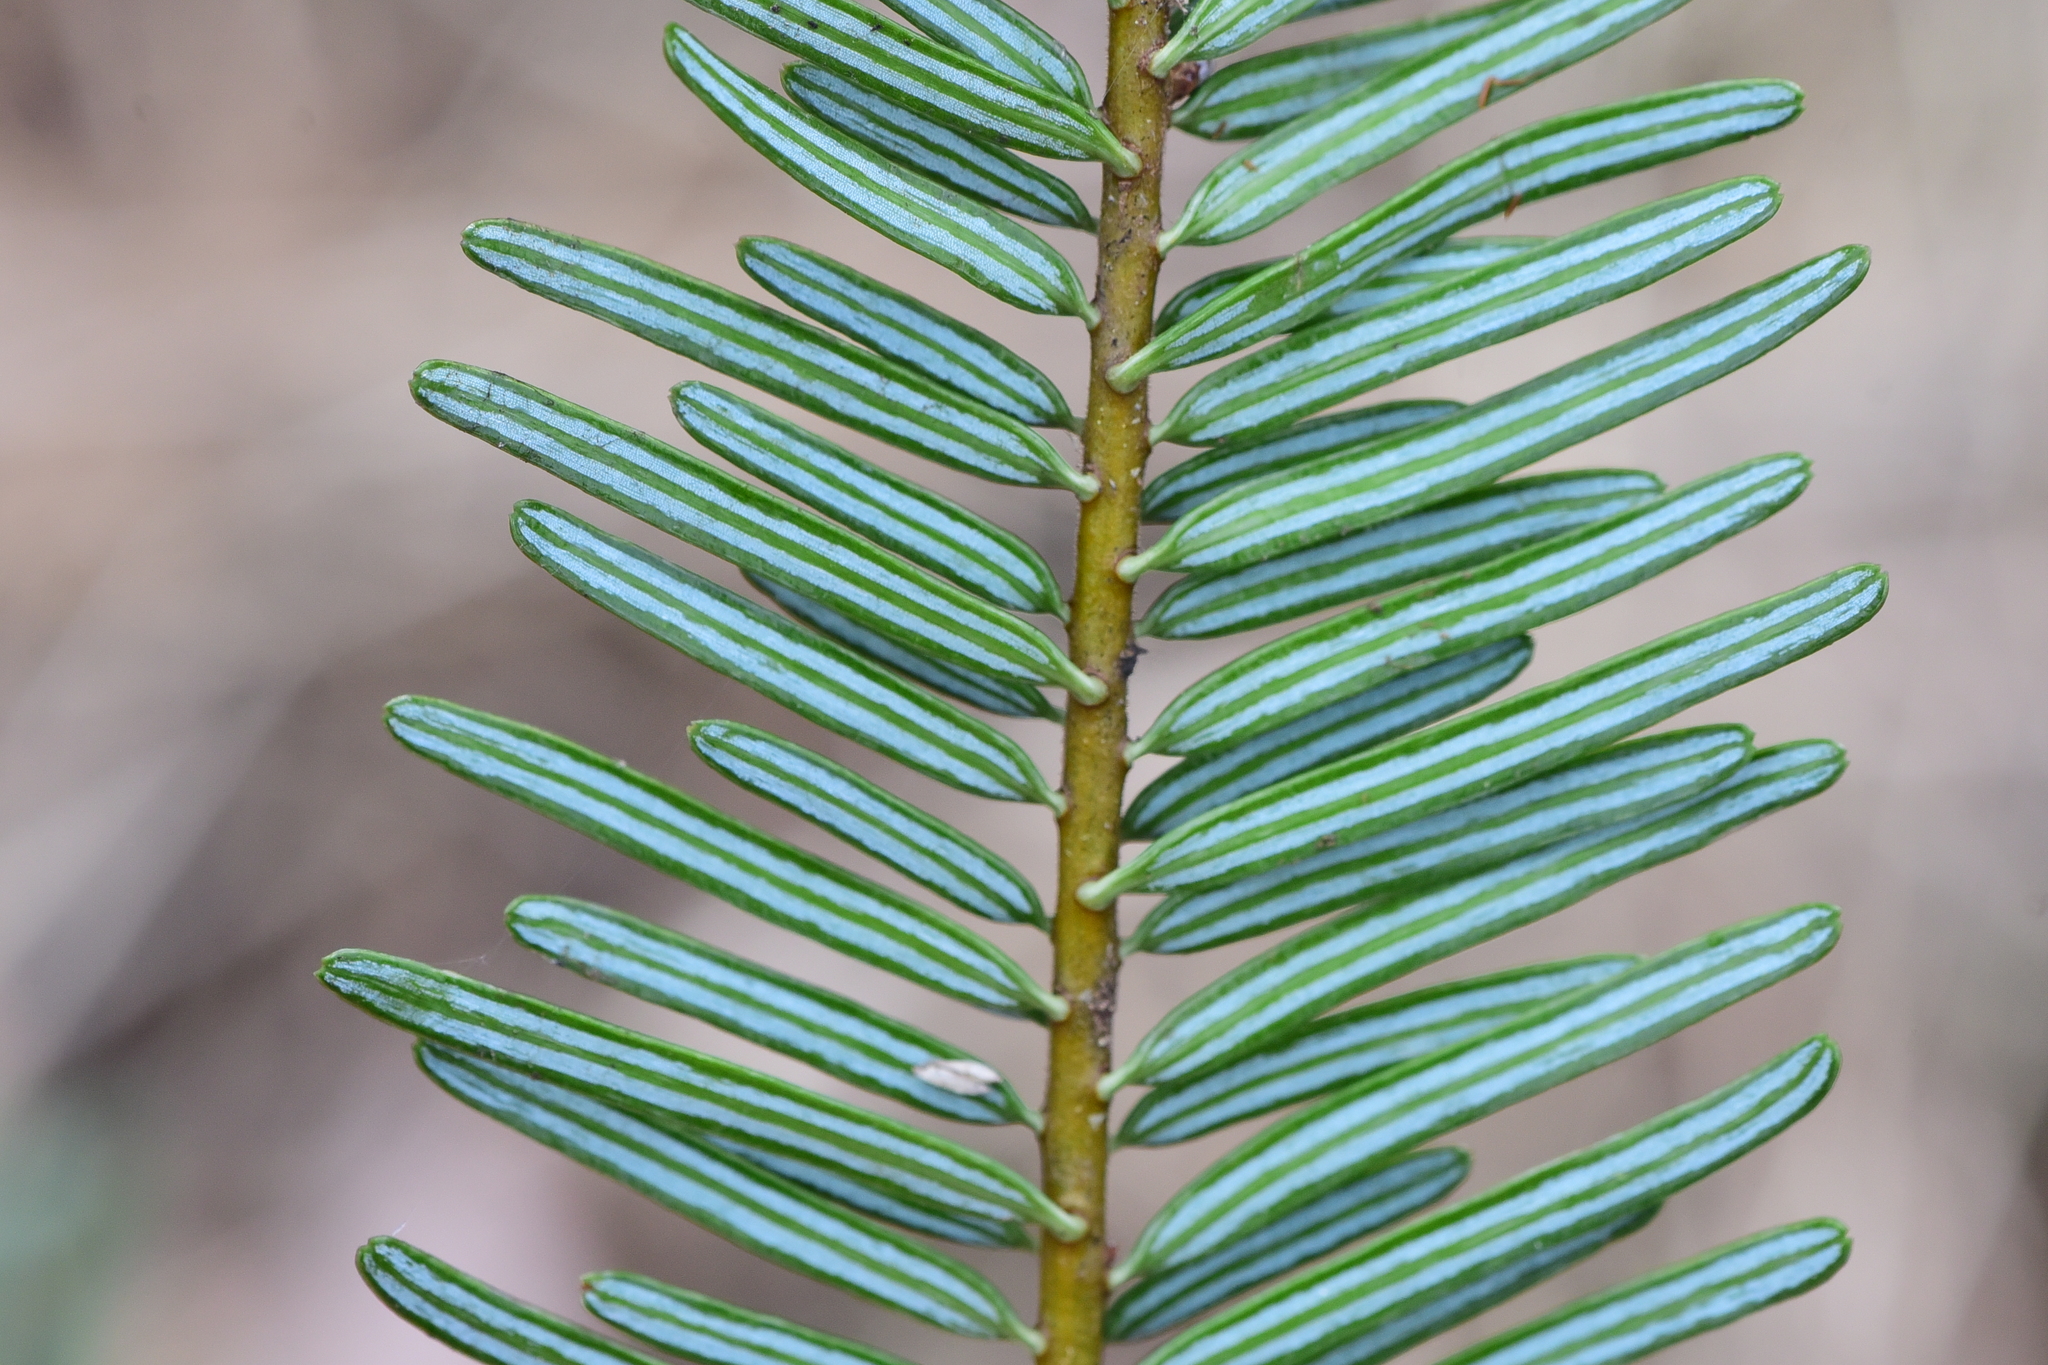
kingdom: Plantae
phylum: Tracheophyta
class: Pinopsida
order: Pinales
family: Pinaceae
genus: Abies
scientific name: Abies grandis
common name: Giant fir
